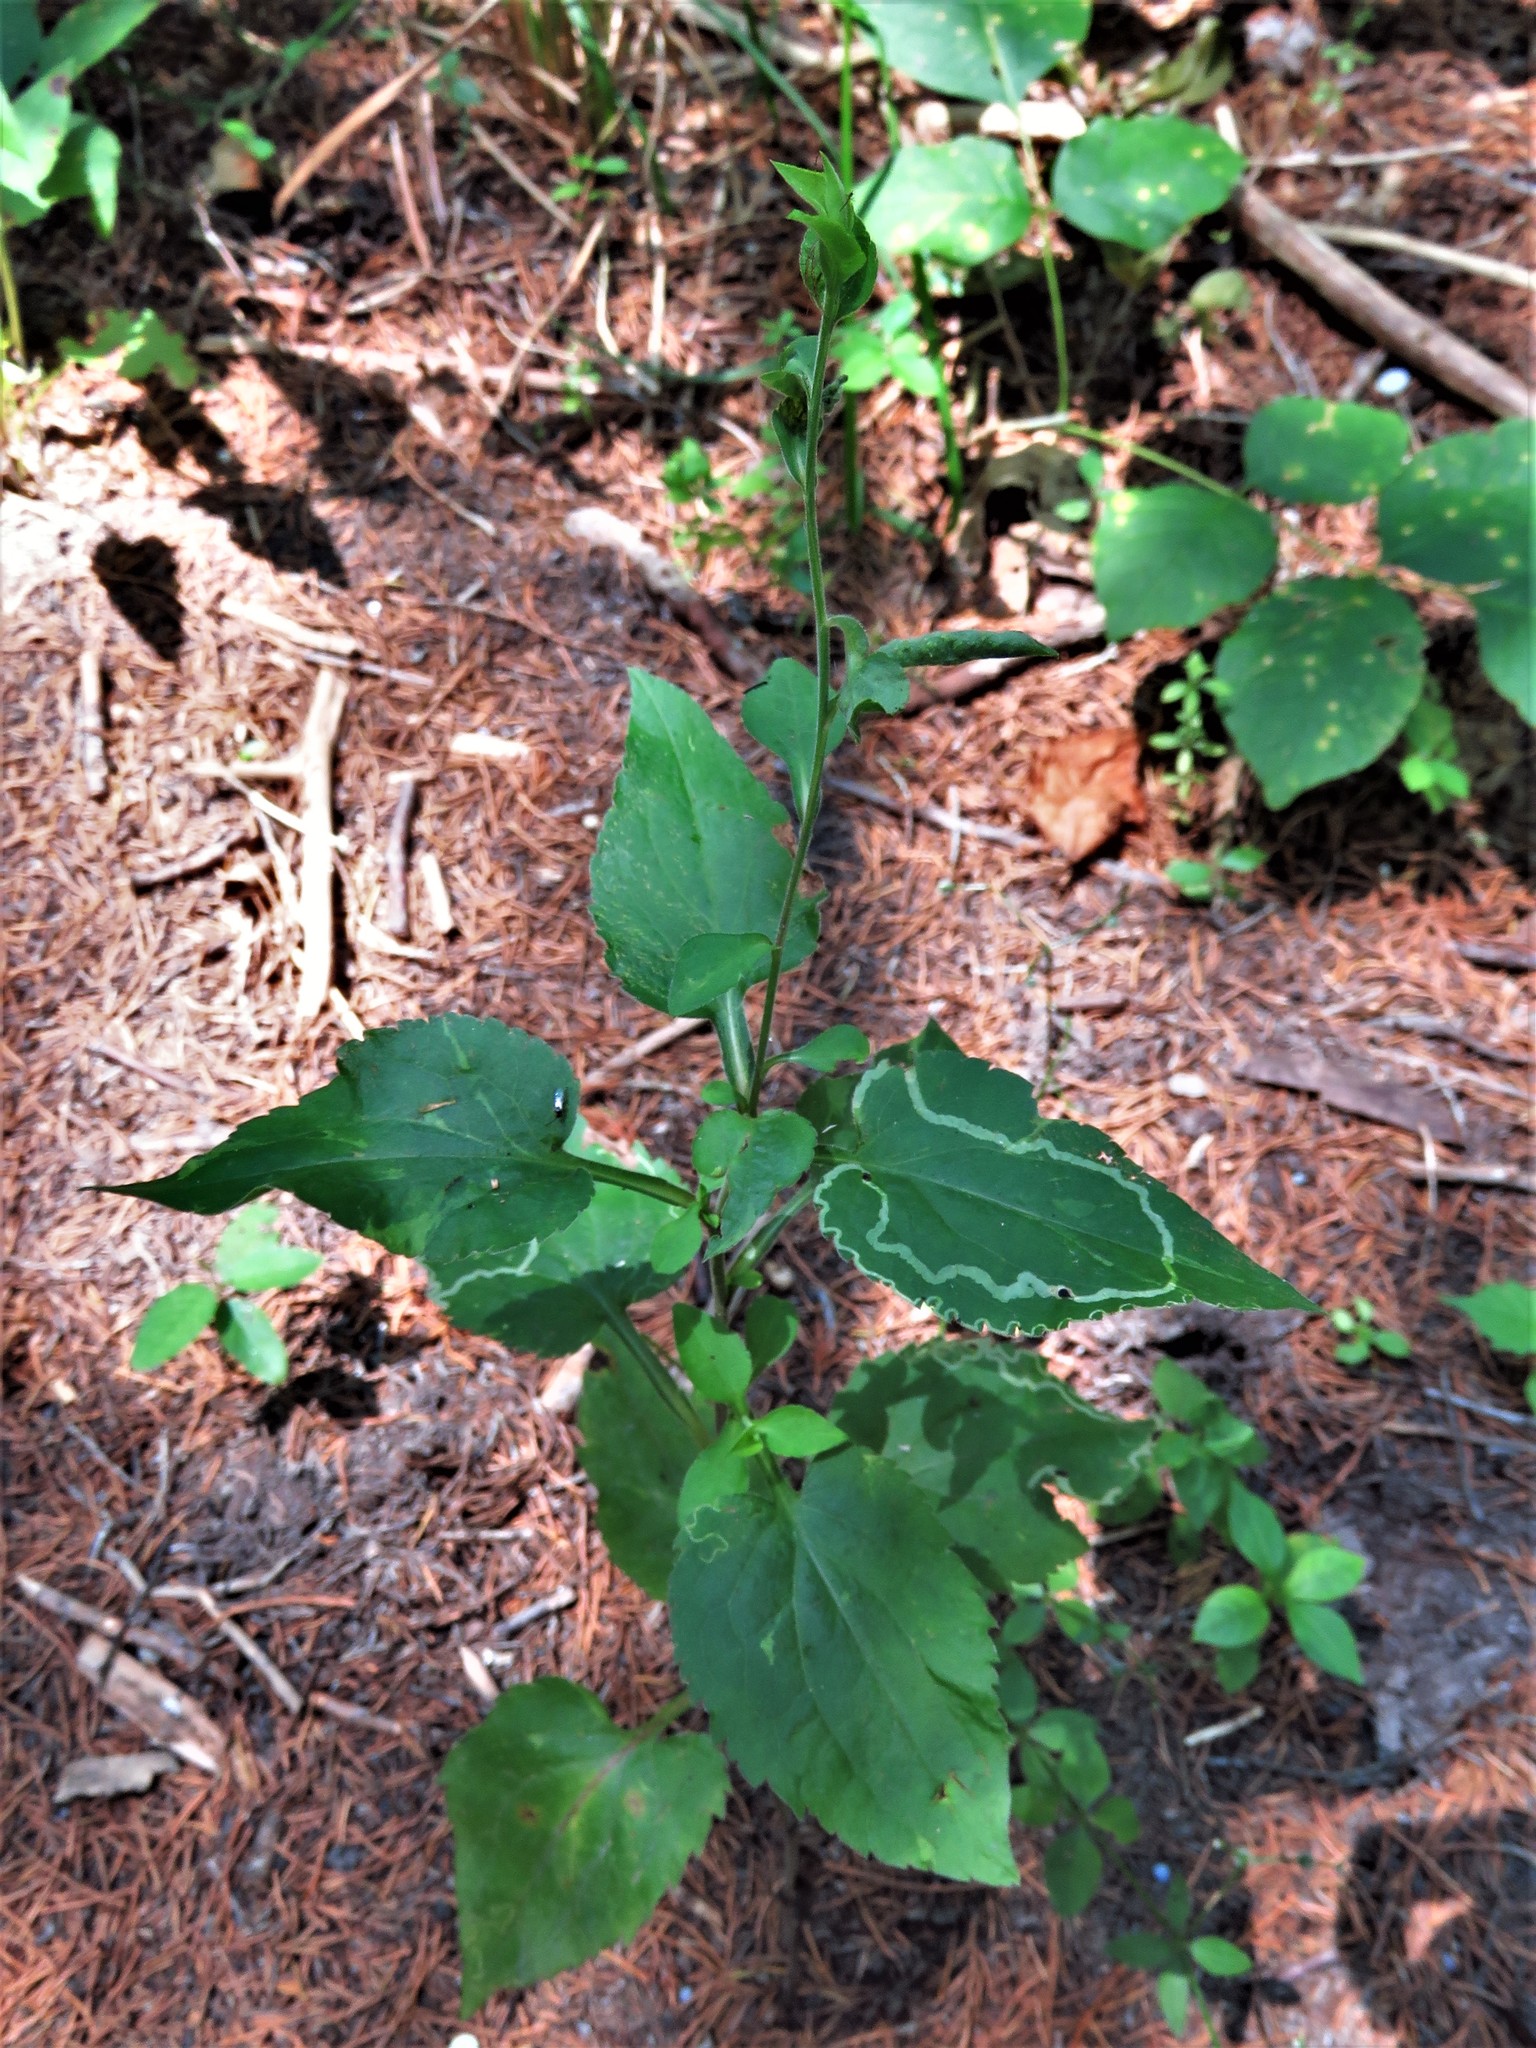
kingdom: Animalia
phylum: Arthropoda
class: Insecta
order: Diptera
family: Agromyzidae
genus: Ophiomyia
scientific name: Ophiomyia parda
